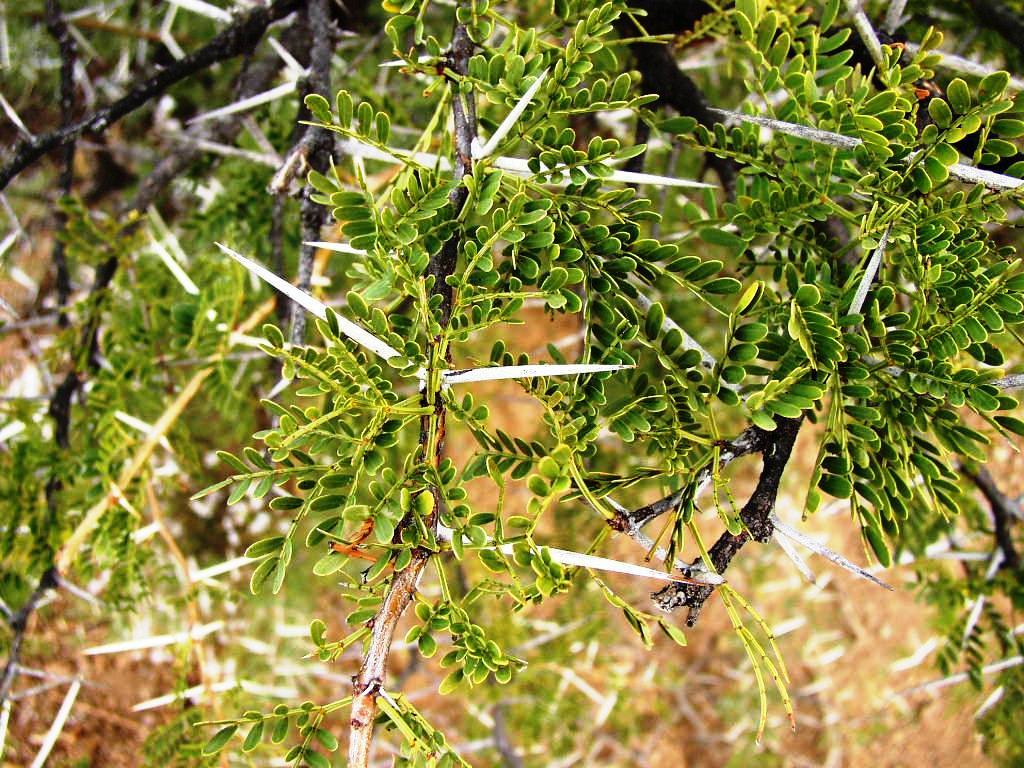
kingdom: Plantae
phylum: Tracheophyta
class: Magnoliopsida
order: Fabales
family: Fabaceae
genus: Vachellia
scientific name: Vachellia karroo
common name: Sweet thorn
